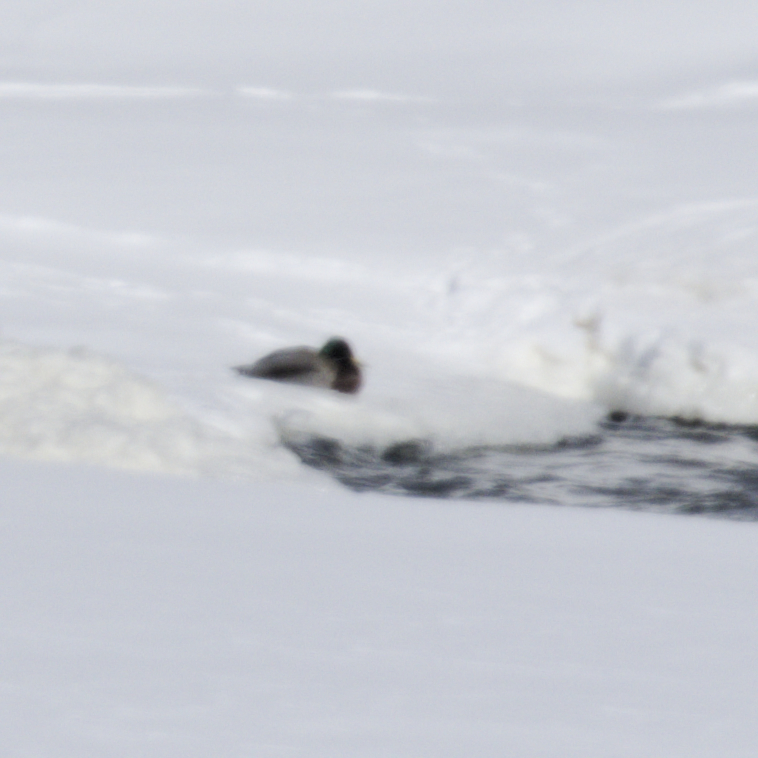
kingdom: Animalia
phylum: Chordata
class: Aves
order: Anseriformes
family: Anatidae
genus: Anas
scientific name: Anas platyrhynchos
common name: Mallard
